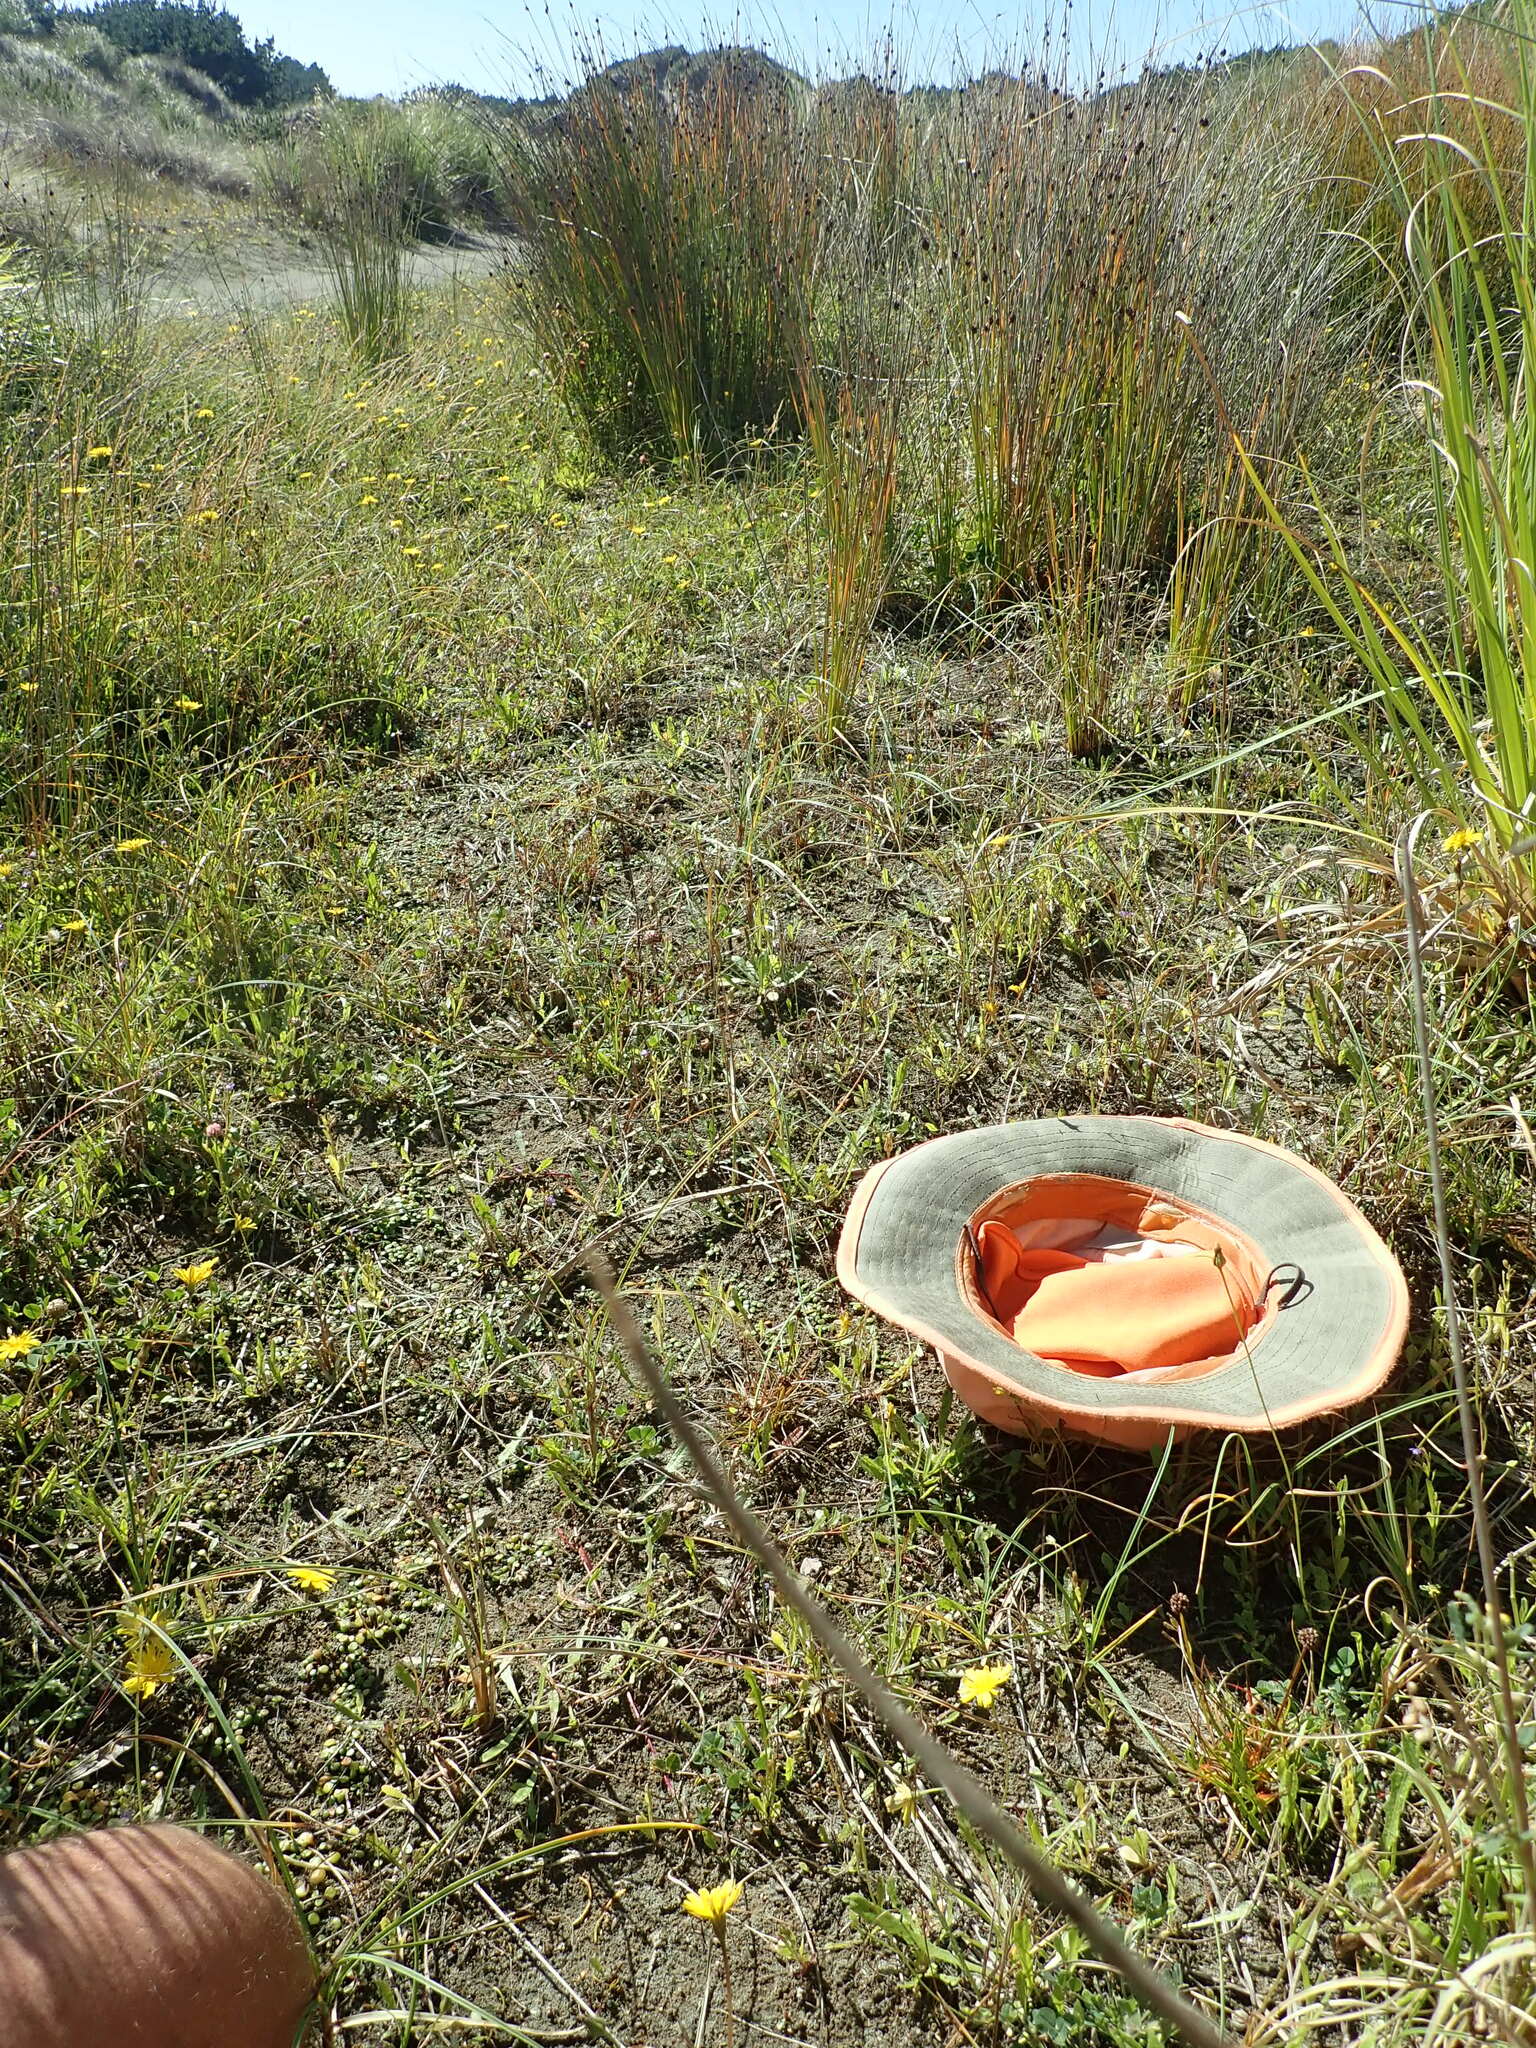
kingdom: Plantae
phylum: Tracheophyta
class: Liliopsida
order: Poales
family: Juncaceae
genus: Juncus
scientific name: Juncus caespiticius
